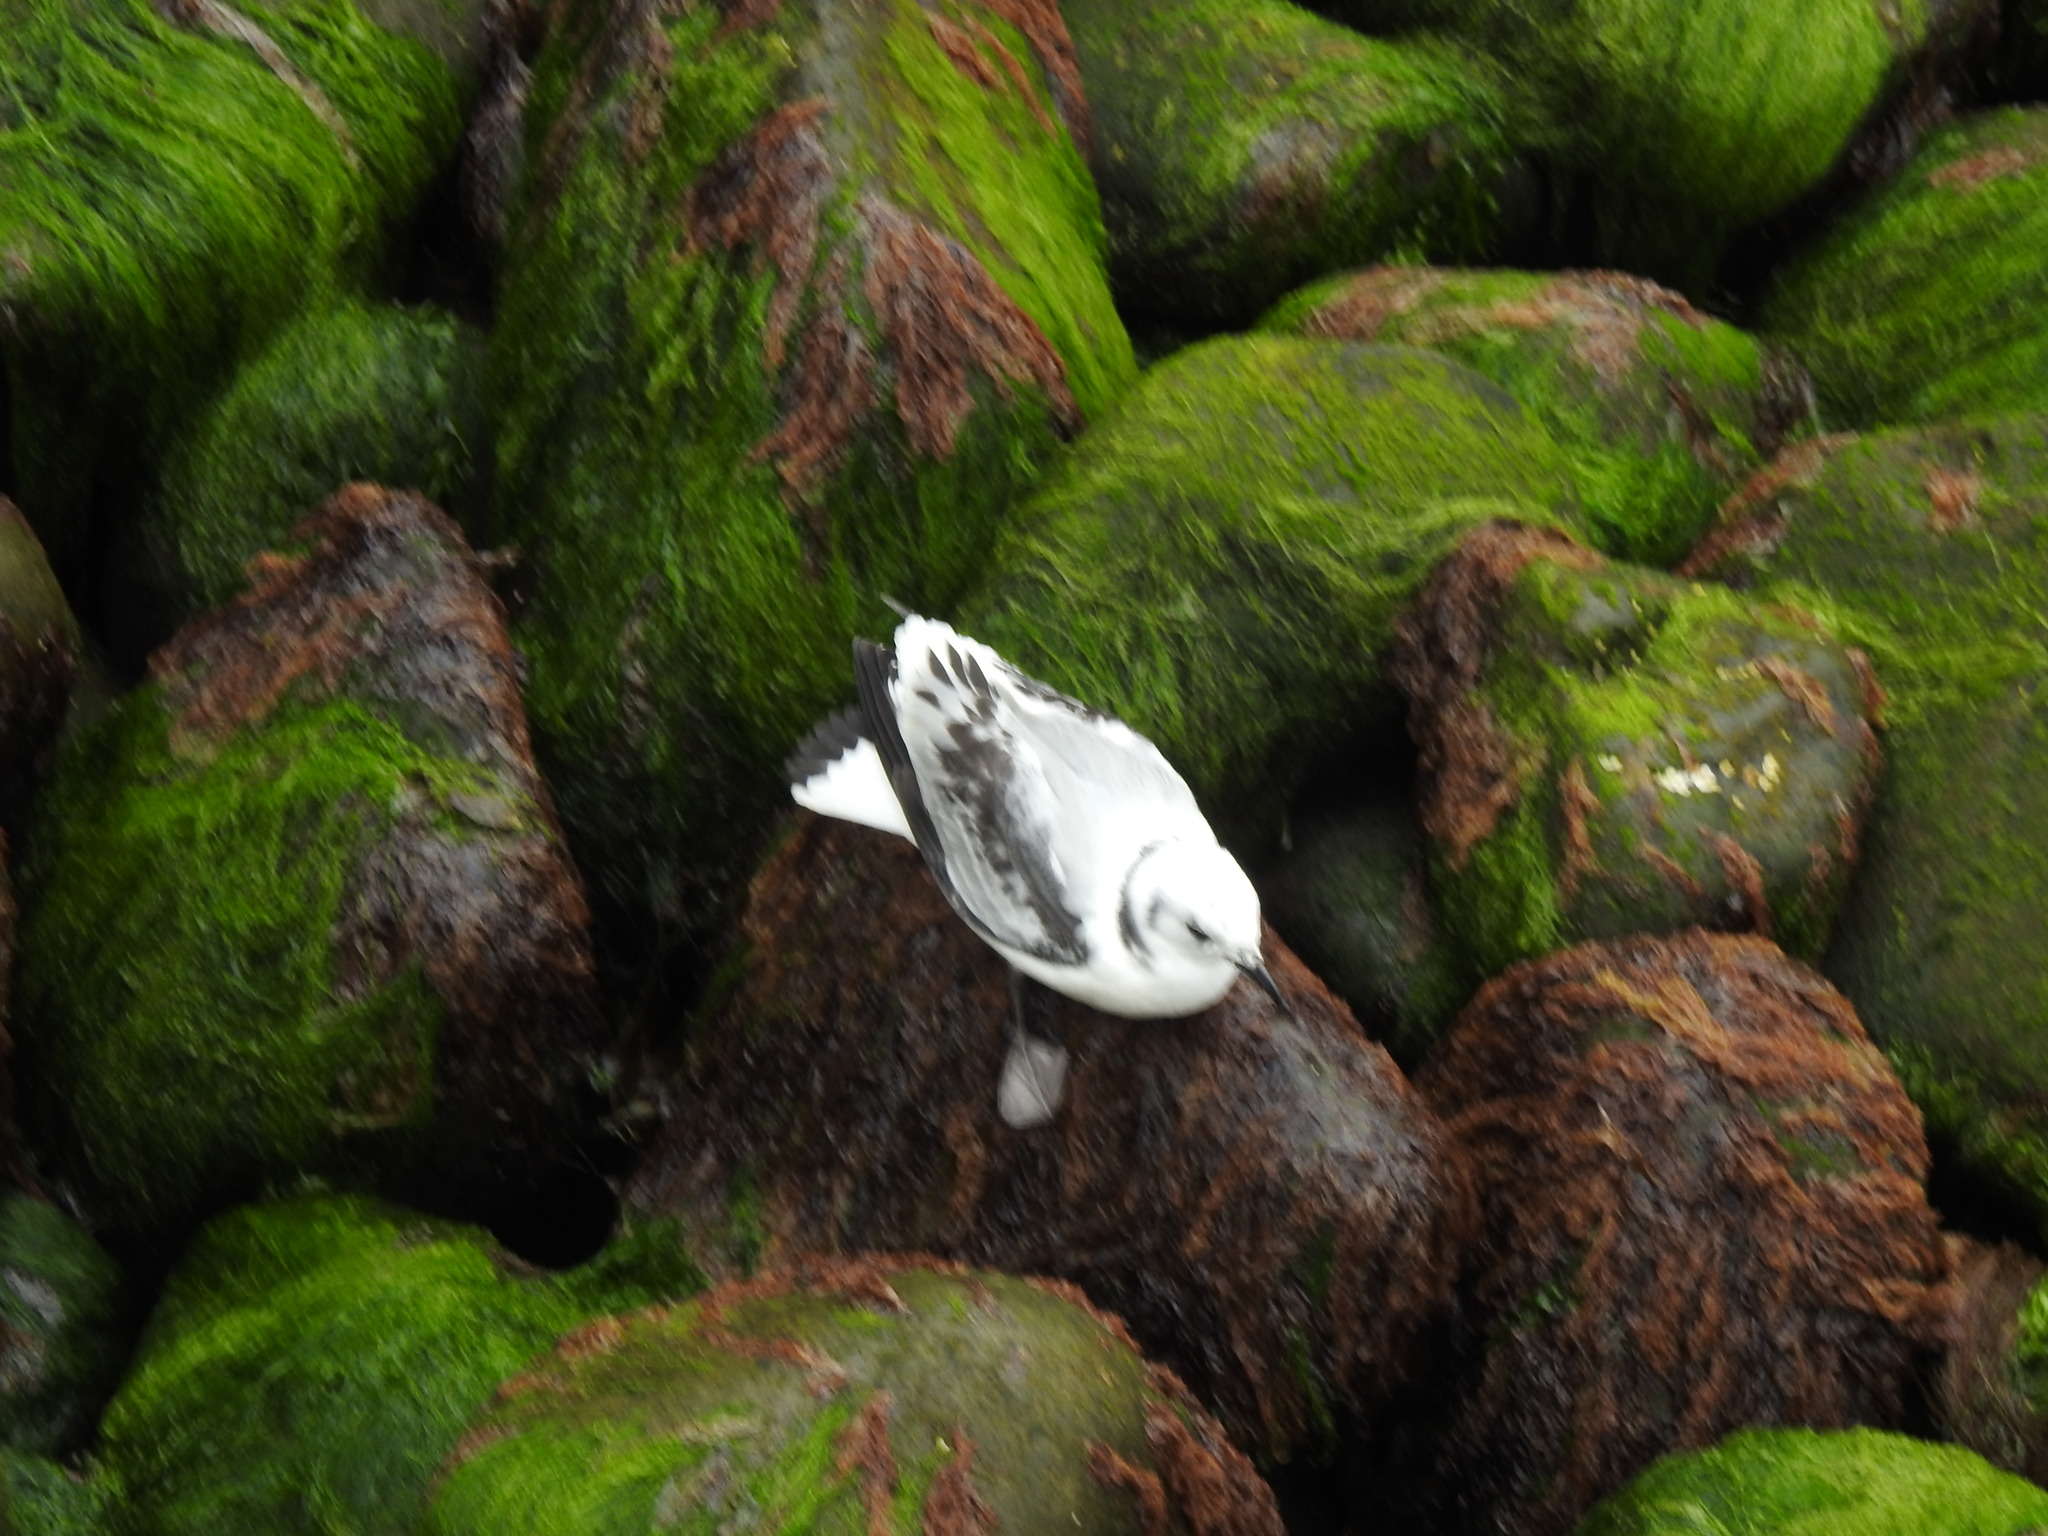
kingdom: Animalia
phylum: Chordata
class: Aves
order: Charadriiformes
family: Laridae
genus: Rissa
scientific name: Rissa tridactyla
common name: Black-legged kittiwake
